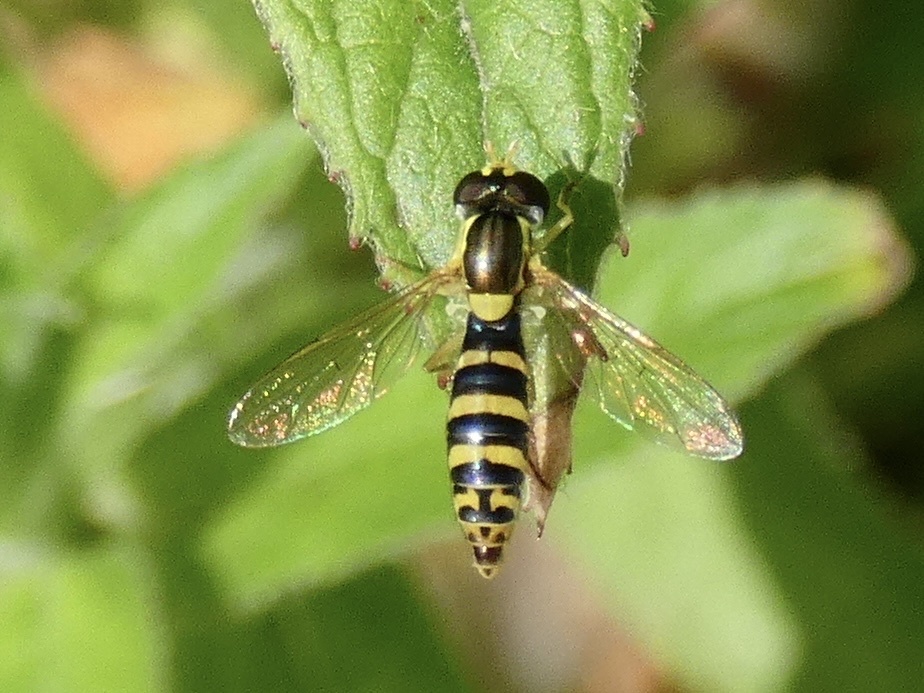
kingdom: Animalia
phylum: Arthropoda
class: Insecta
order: Diptera
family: Syrphidae
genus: Sphaerophoria
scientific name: Sphaerophoria
